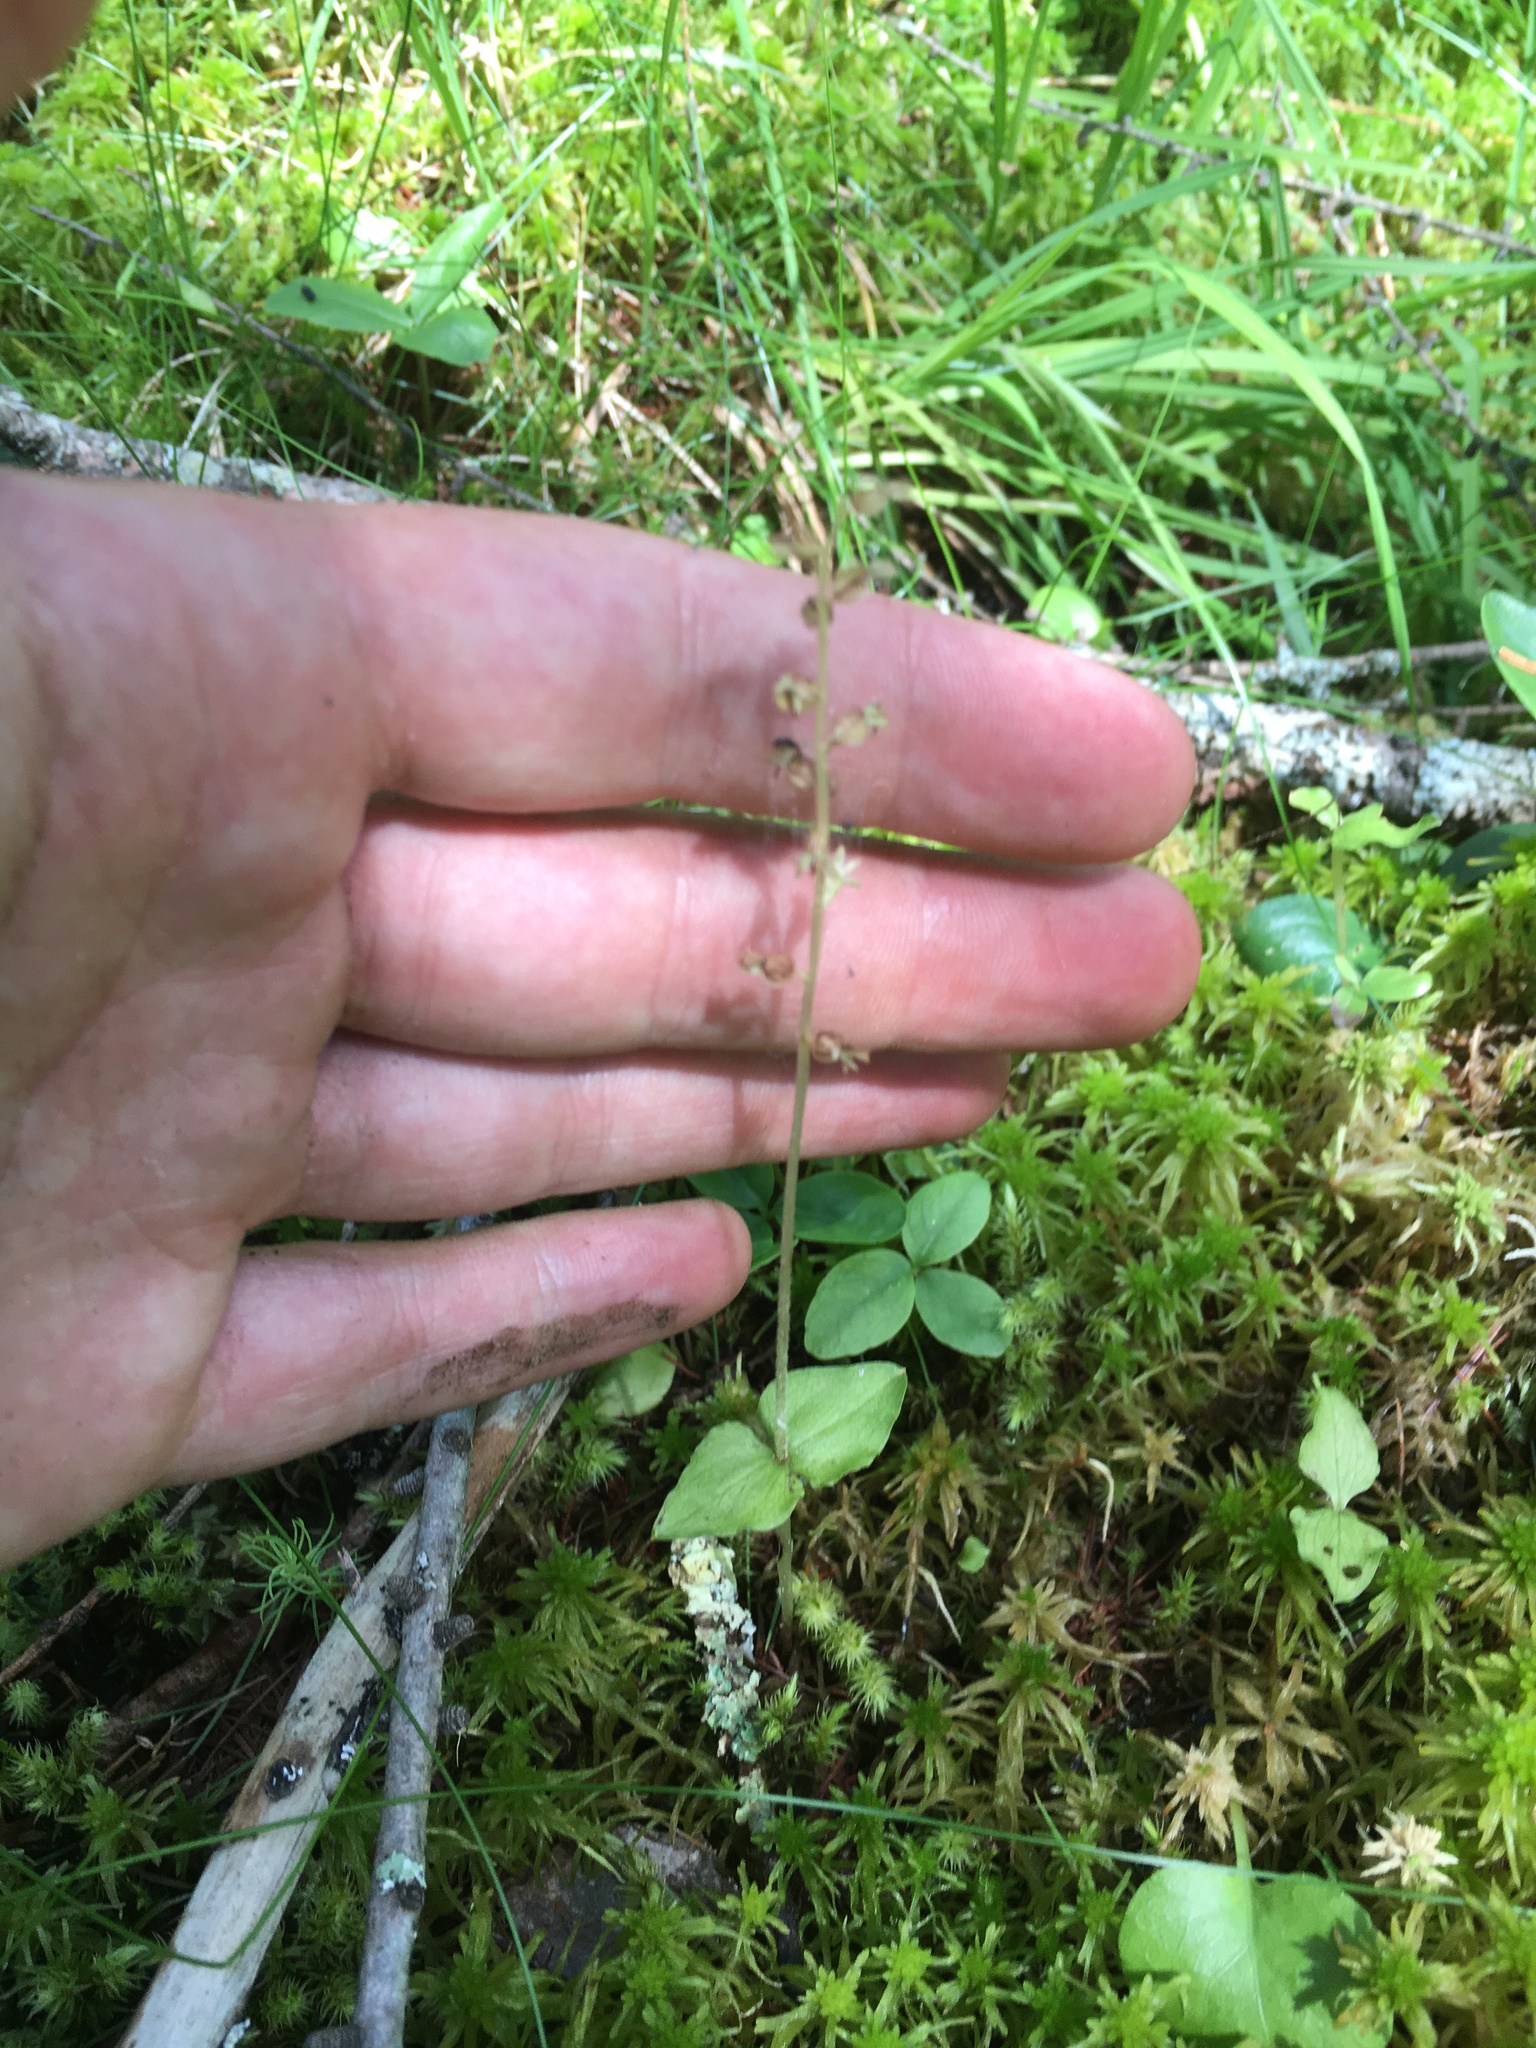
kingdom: Plantae
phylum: Tracheophyta
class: Liliopsida
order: Asparagales
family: Orchidaceae
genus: Neottia
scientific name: Neottia cordata
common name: Lesser twayblade
